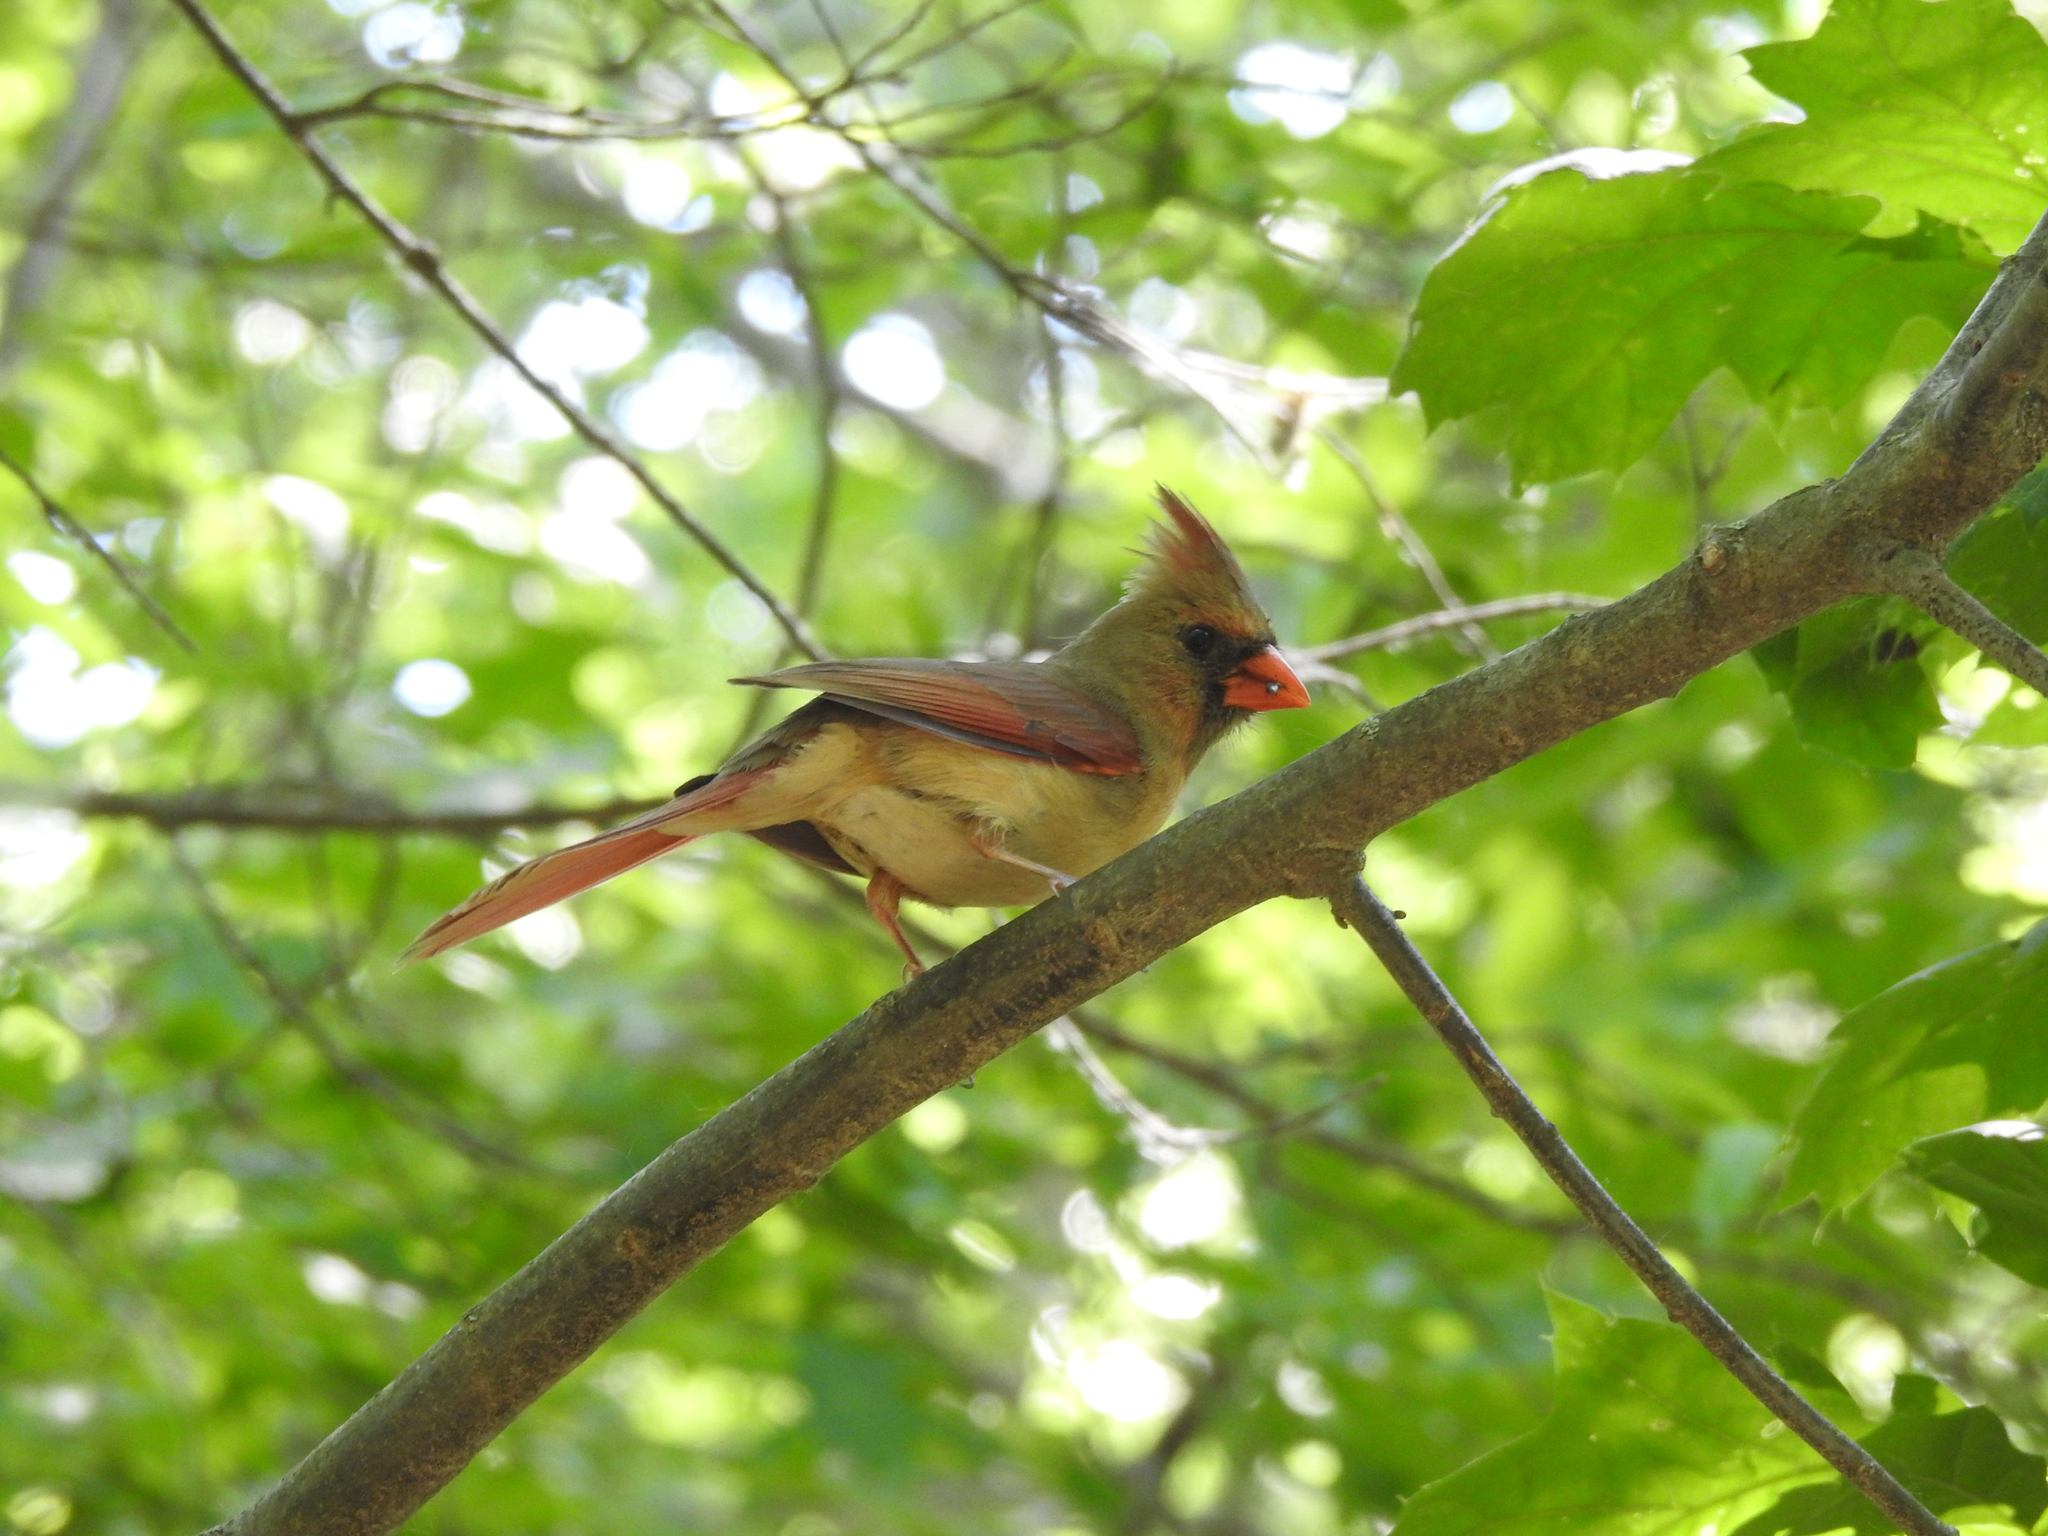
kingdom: Animalia
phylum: Chordata
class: Aves
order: Passeriformes
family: Cardinalidae
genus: Cardinalis
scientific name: Cardinalis cardinalis
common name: Northern cardinal
